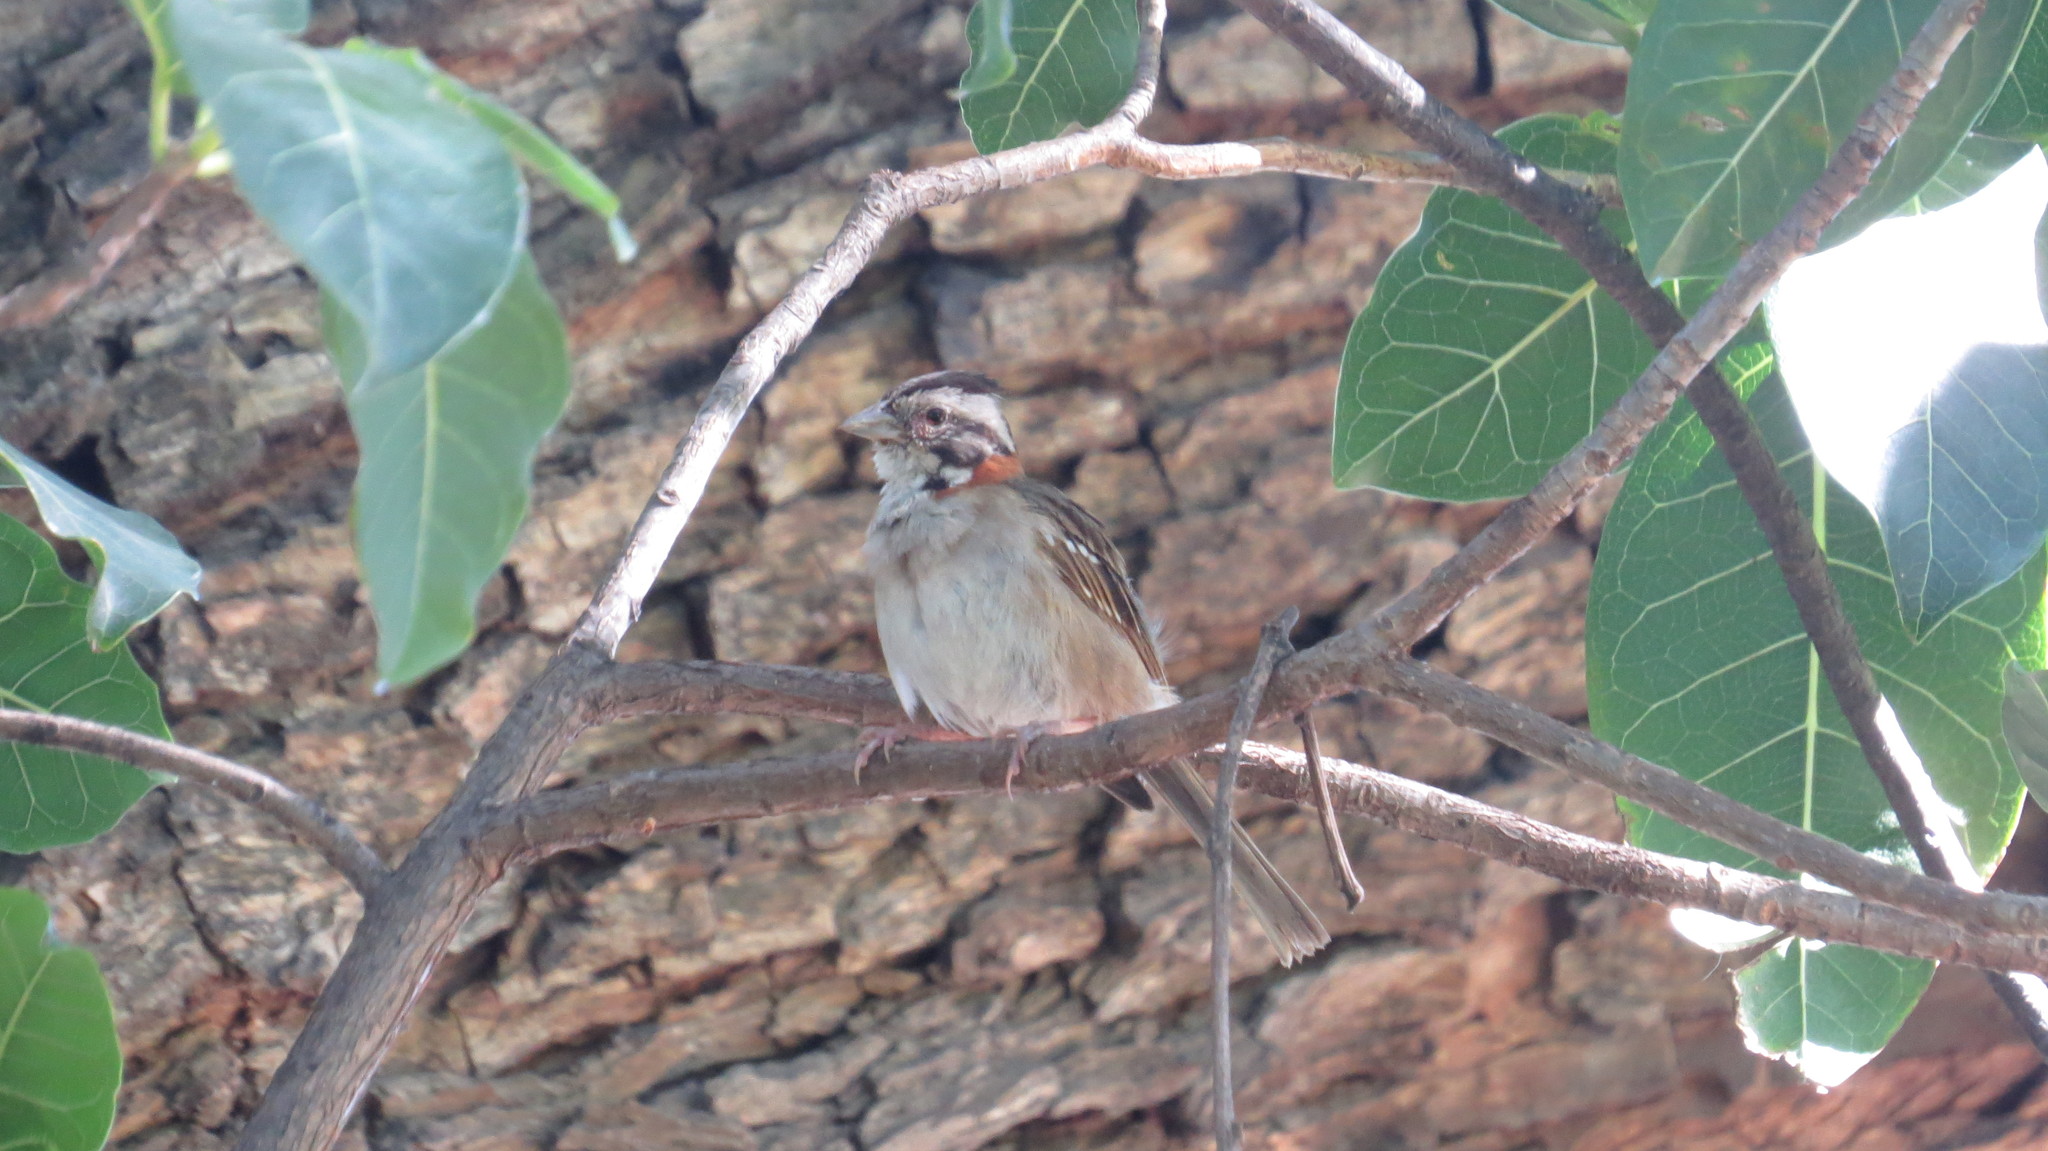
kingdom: Animalia
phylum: Chordata
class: Aves
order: Passeriformes
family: Passerellidae
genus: Zonotrichia
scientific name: Zonotrichia capensis
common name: Rufous-collared sparrow
